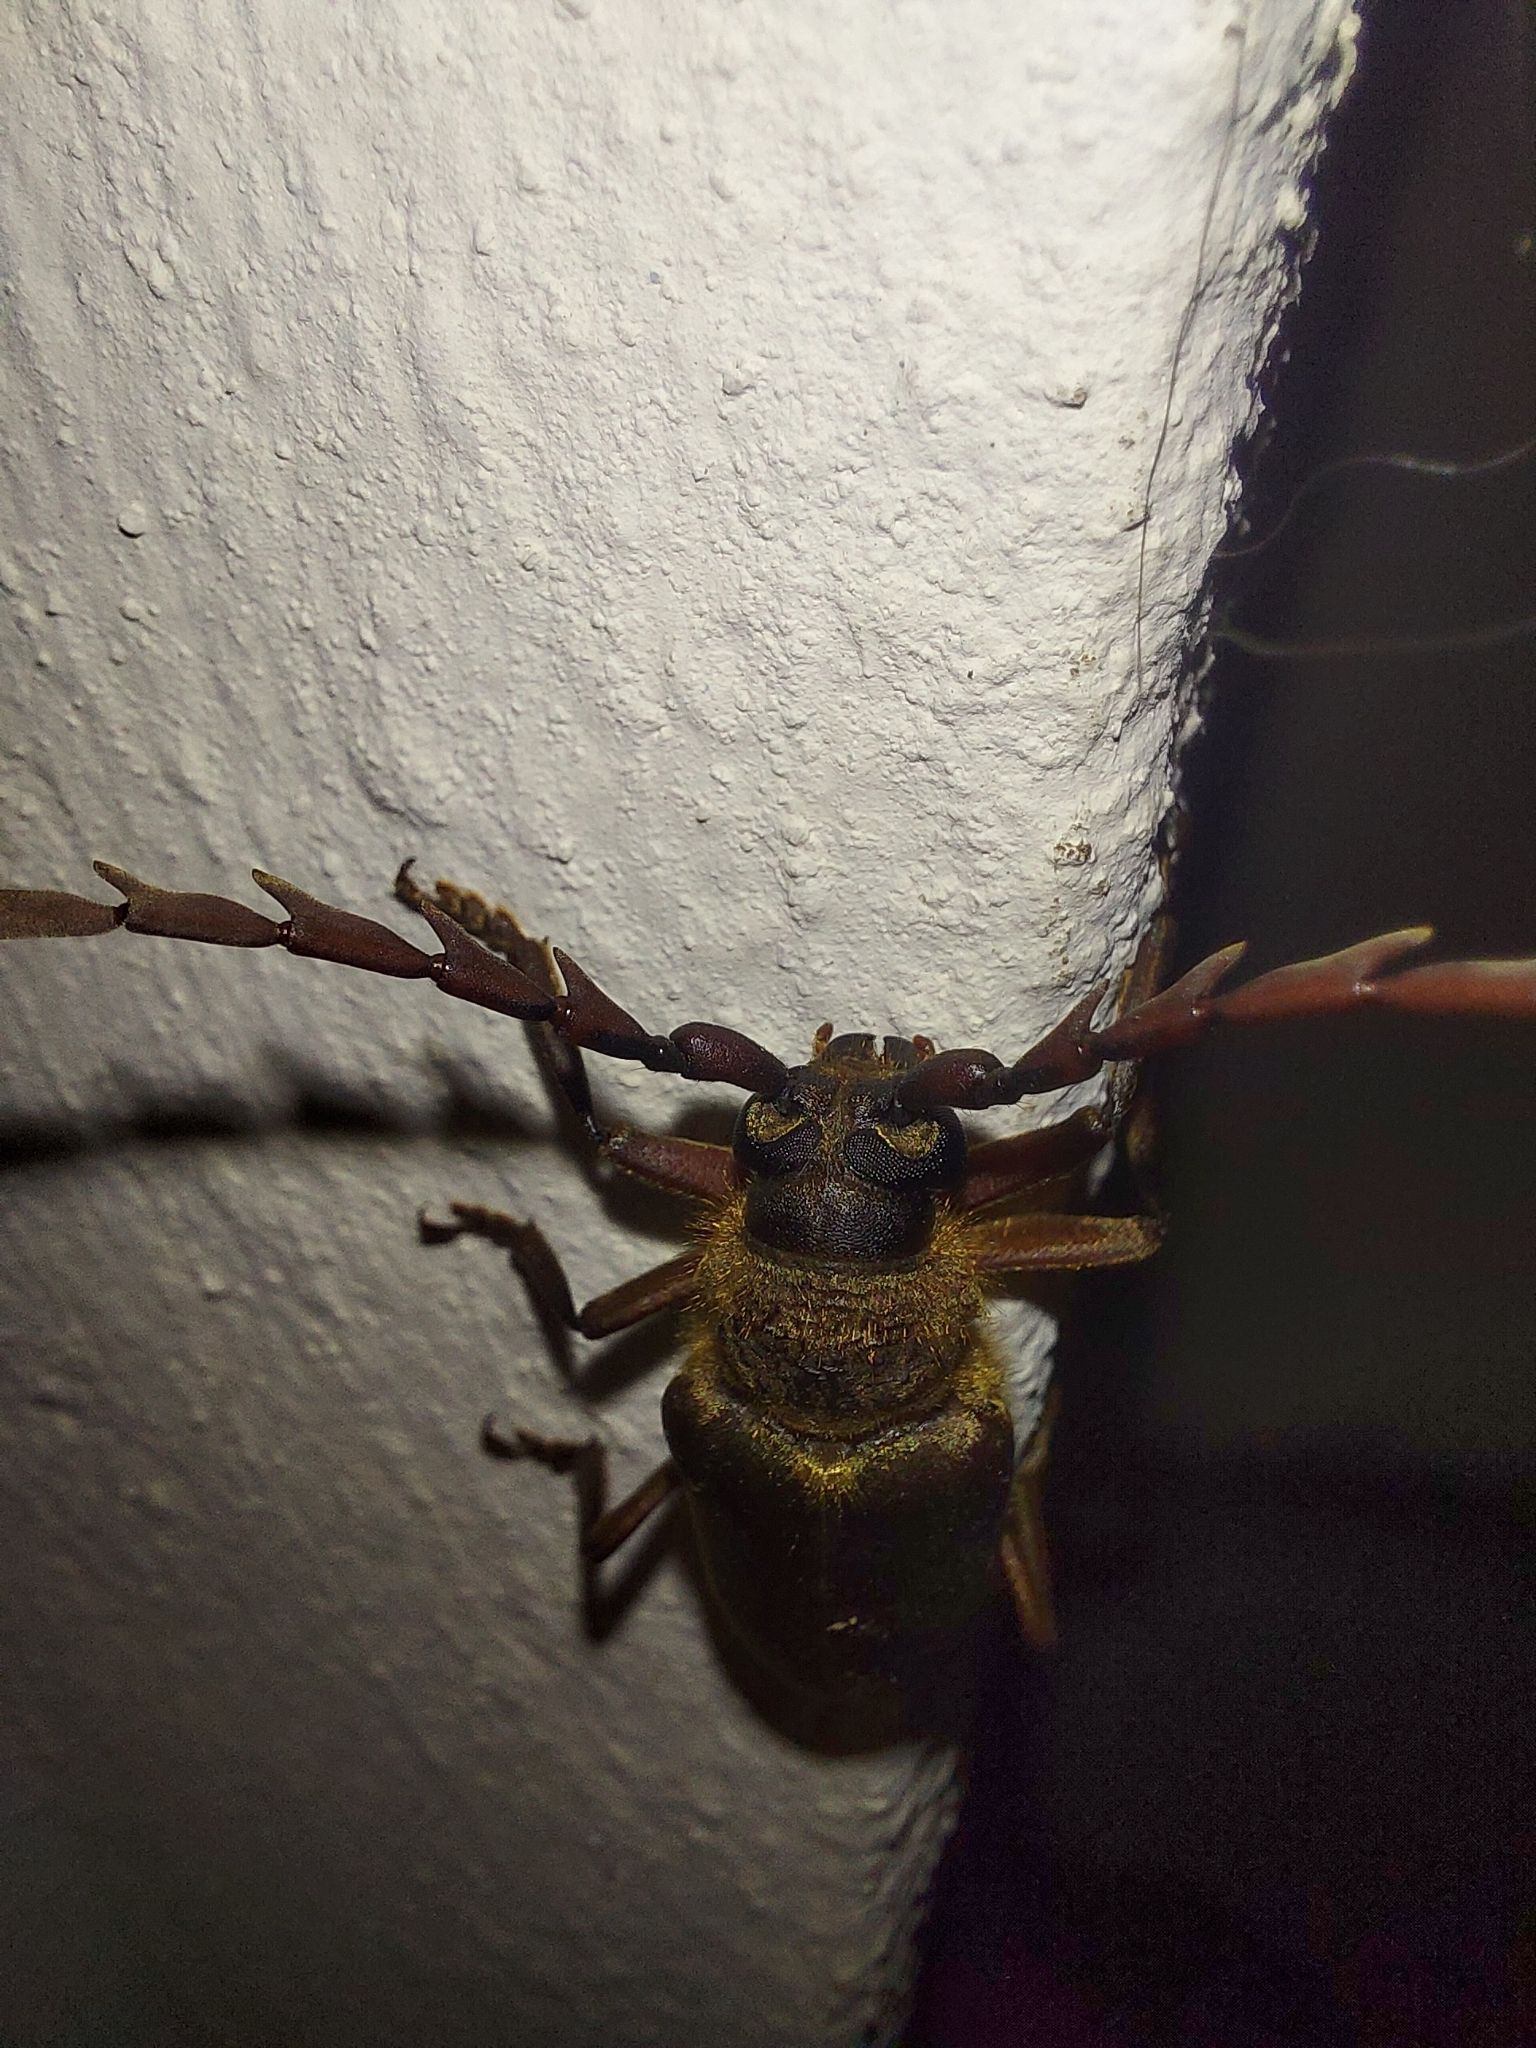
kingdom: Animalia
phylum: Arthropoda
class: Insecta
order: Coleoptera
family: Cerambycidae
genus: Prosphilus
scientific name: Prosphilus serricornis
